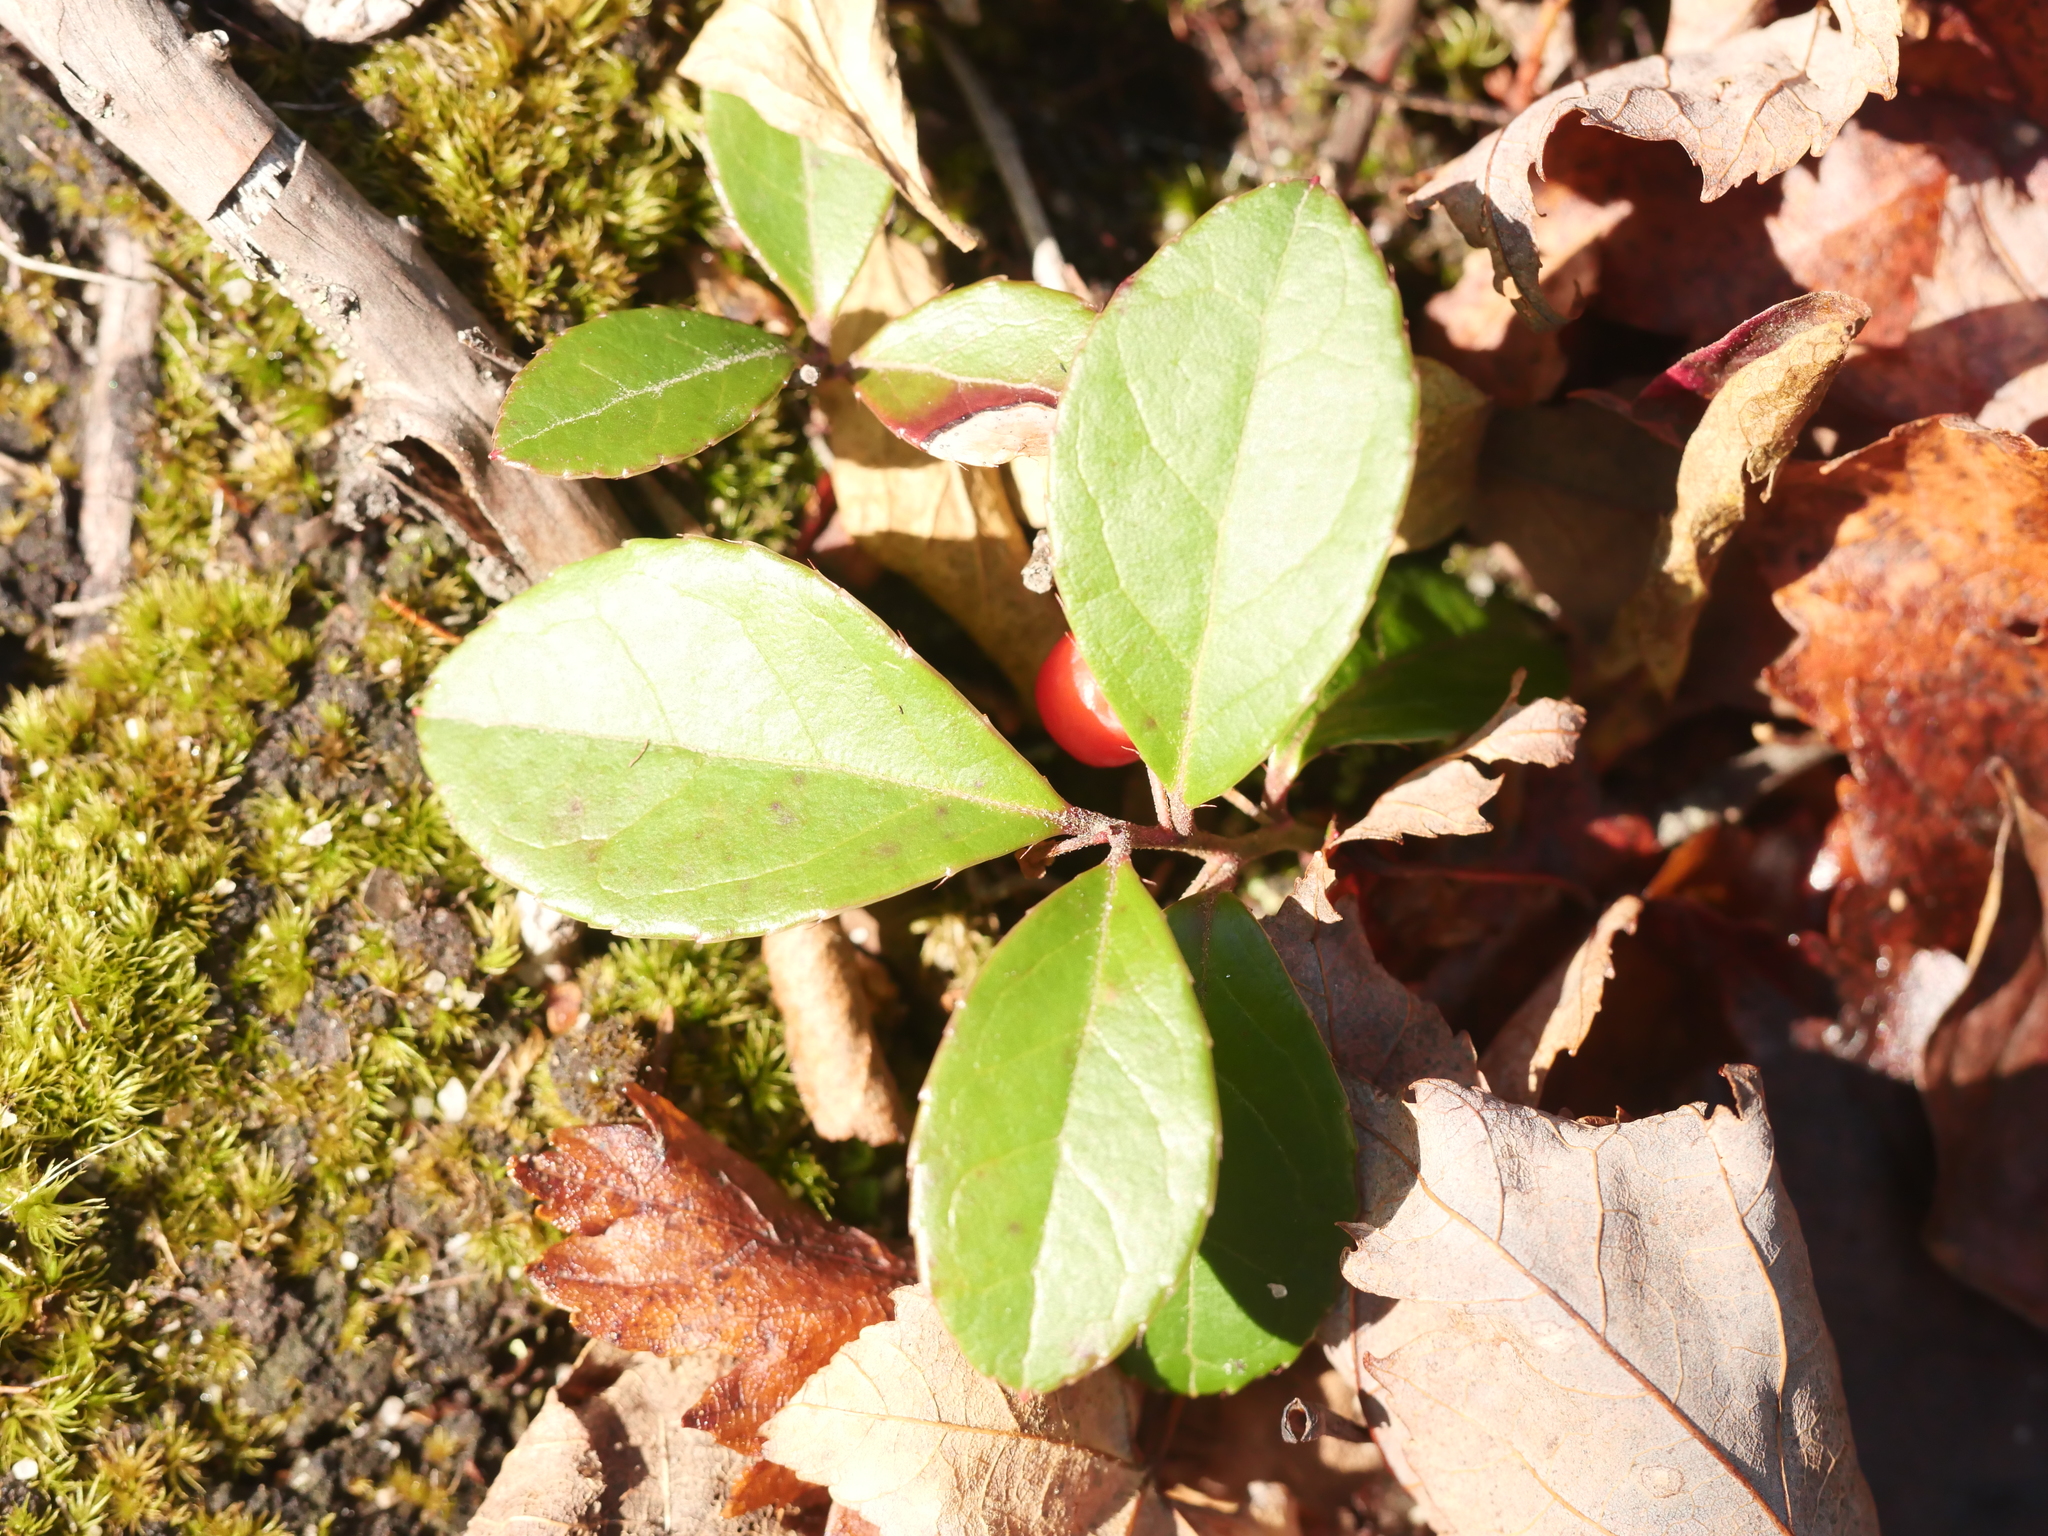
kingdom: Plantae
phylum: Tracheophyta
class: Magnoliopsida
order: Ericales
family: Ericaceae
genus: Gaultheria
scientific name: Gaultheria procumbens
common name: Checkerberry
